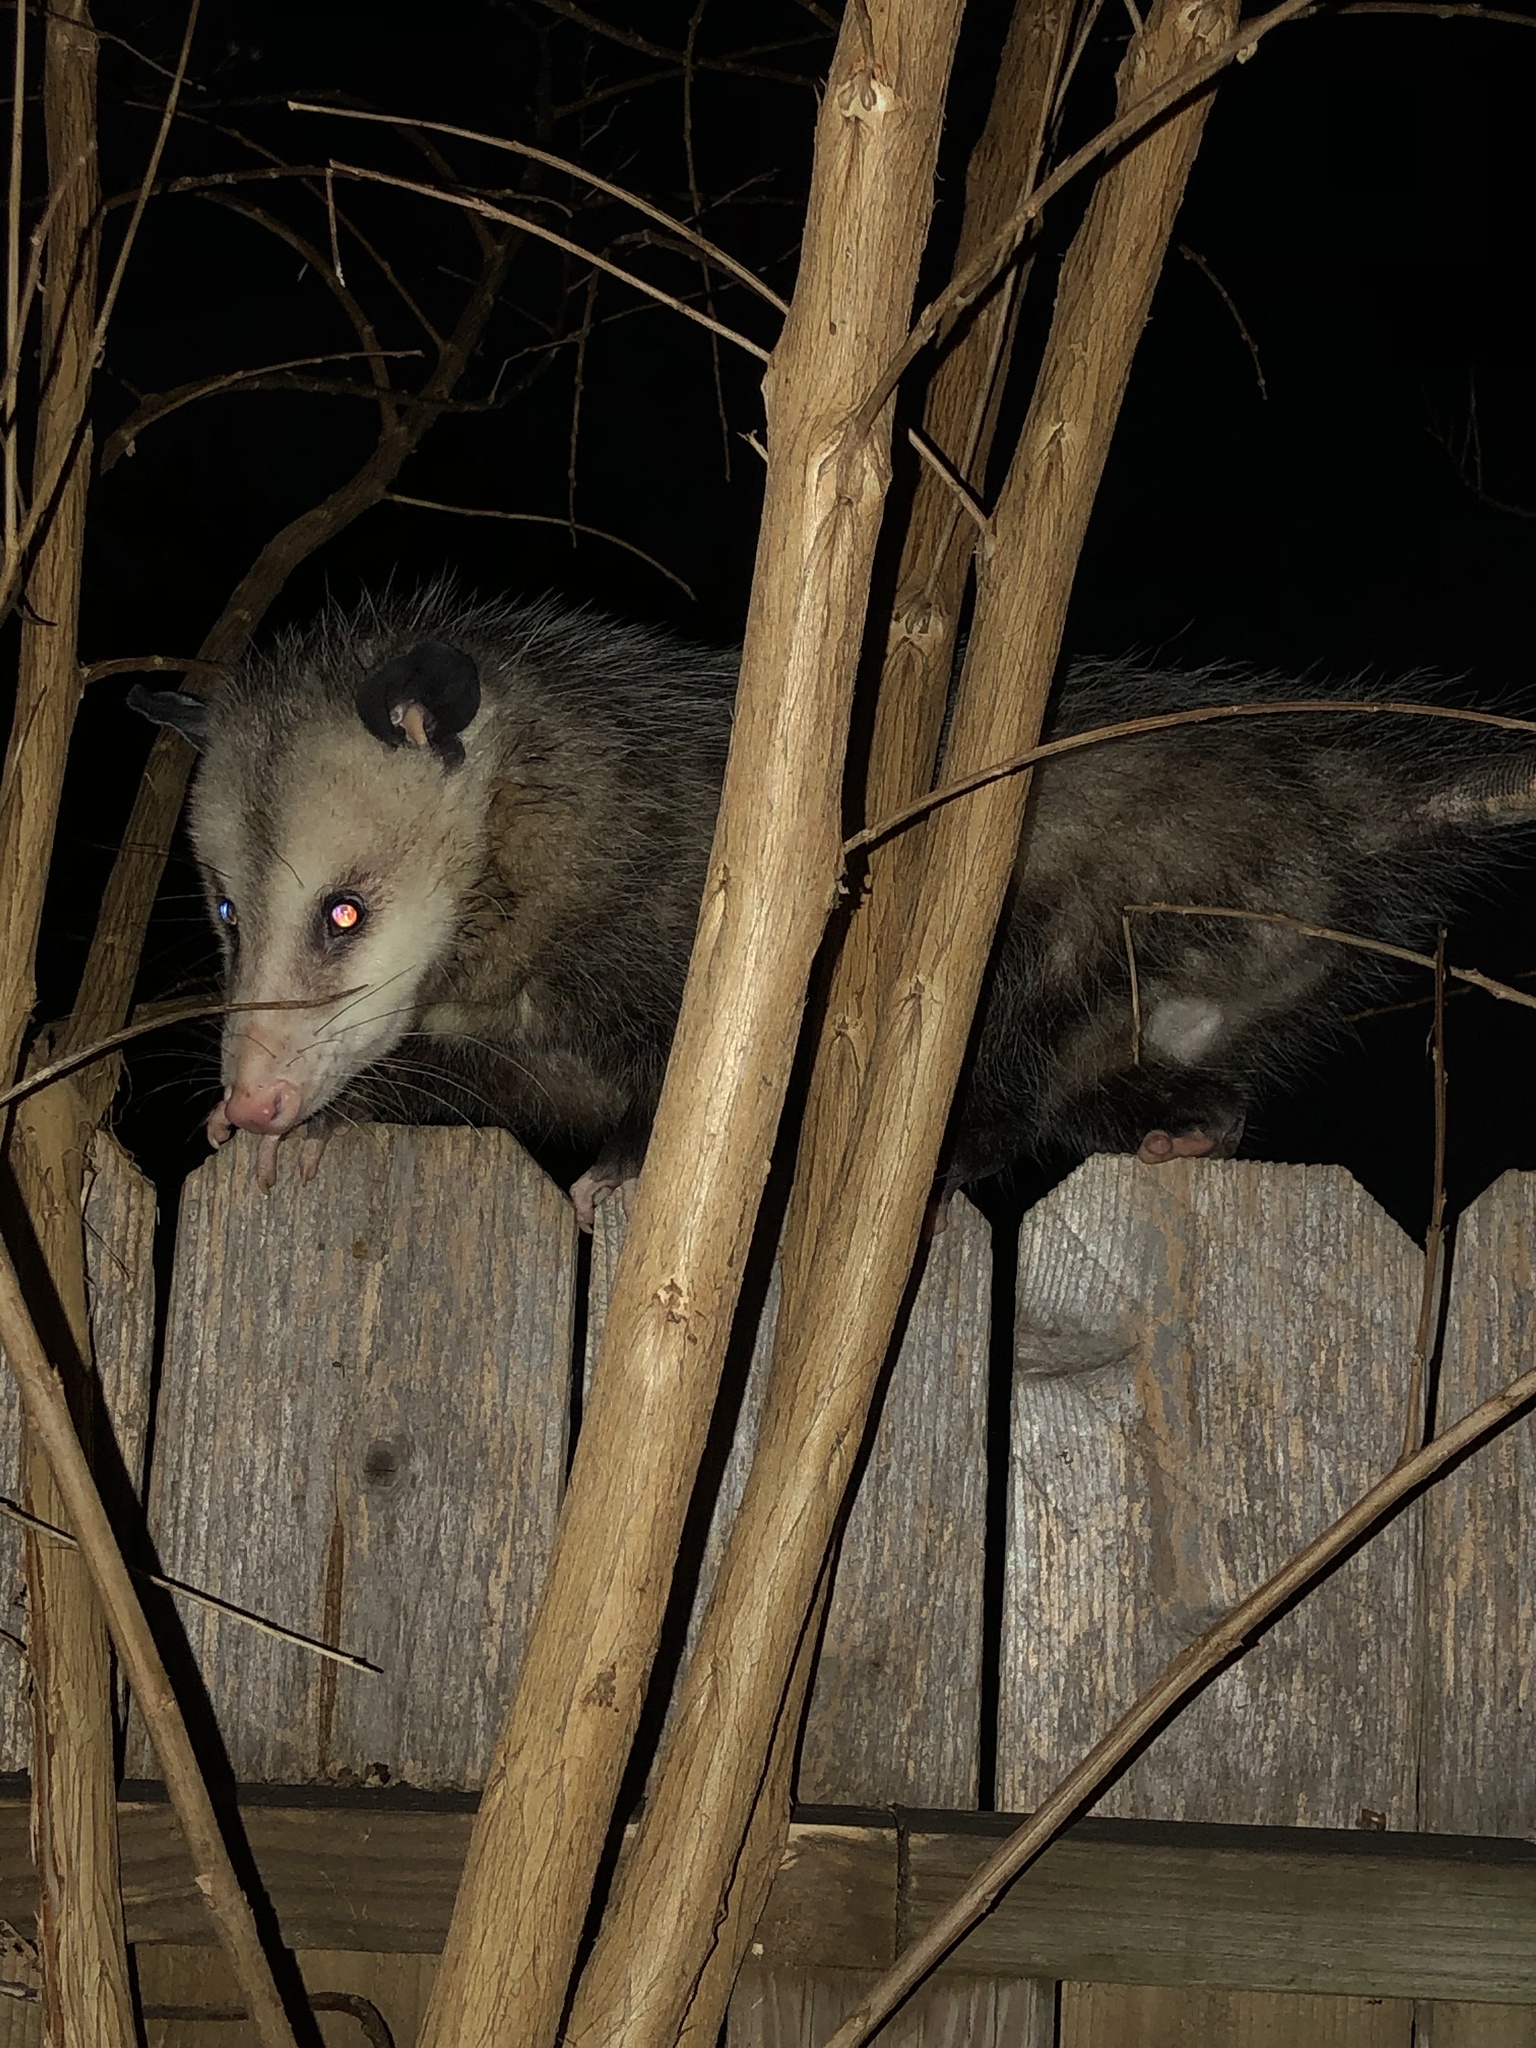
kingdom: Animalia
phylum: Chordata
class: Mammalia
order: Didelphimorphia
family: Didelphidae
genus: Didelphis
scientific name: Didelphis virginiana
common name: Virginia opossum
